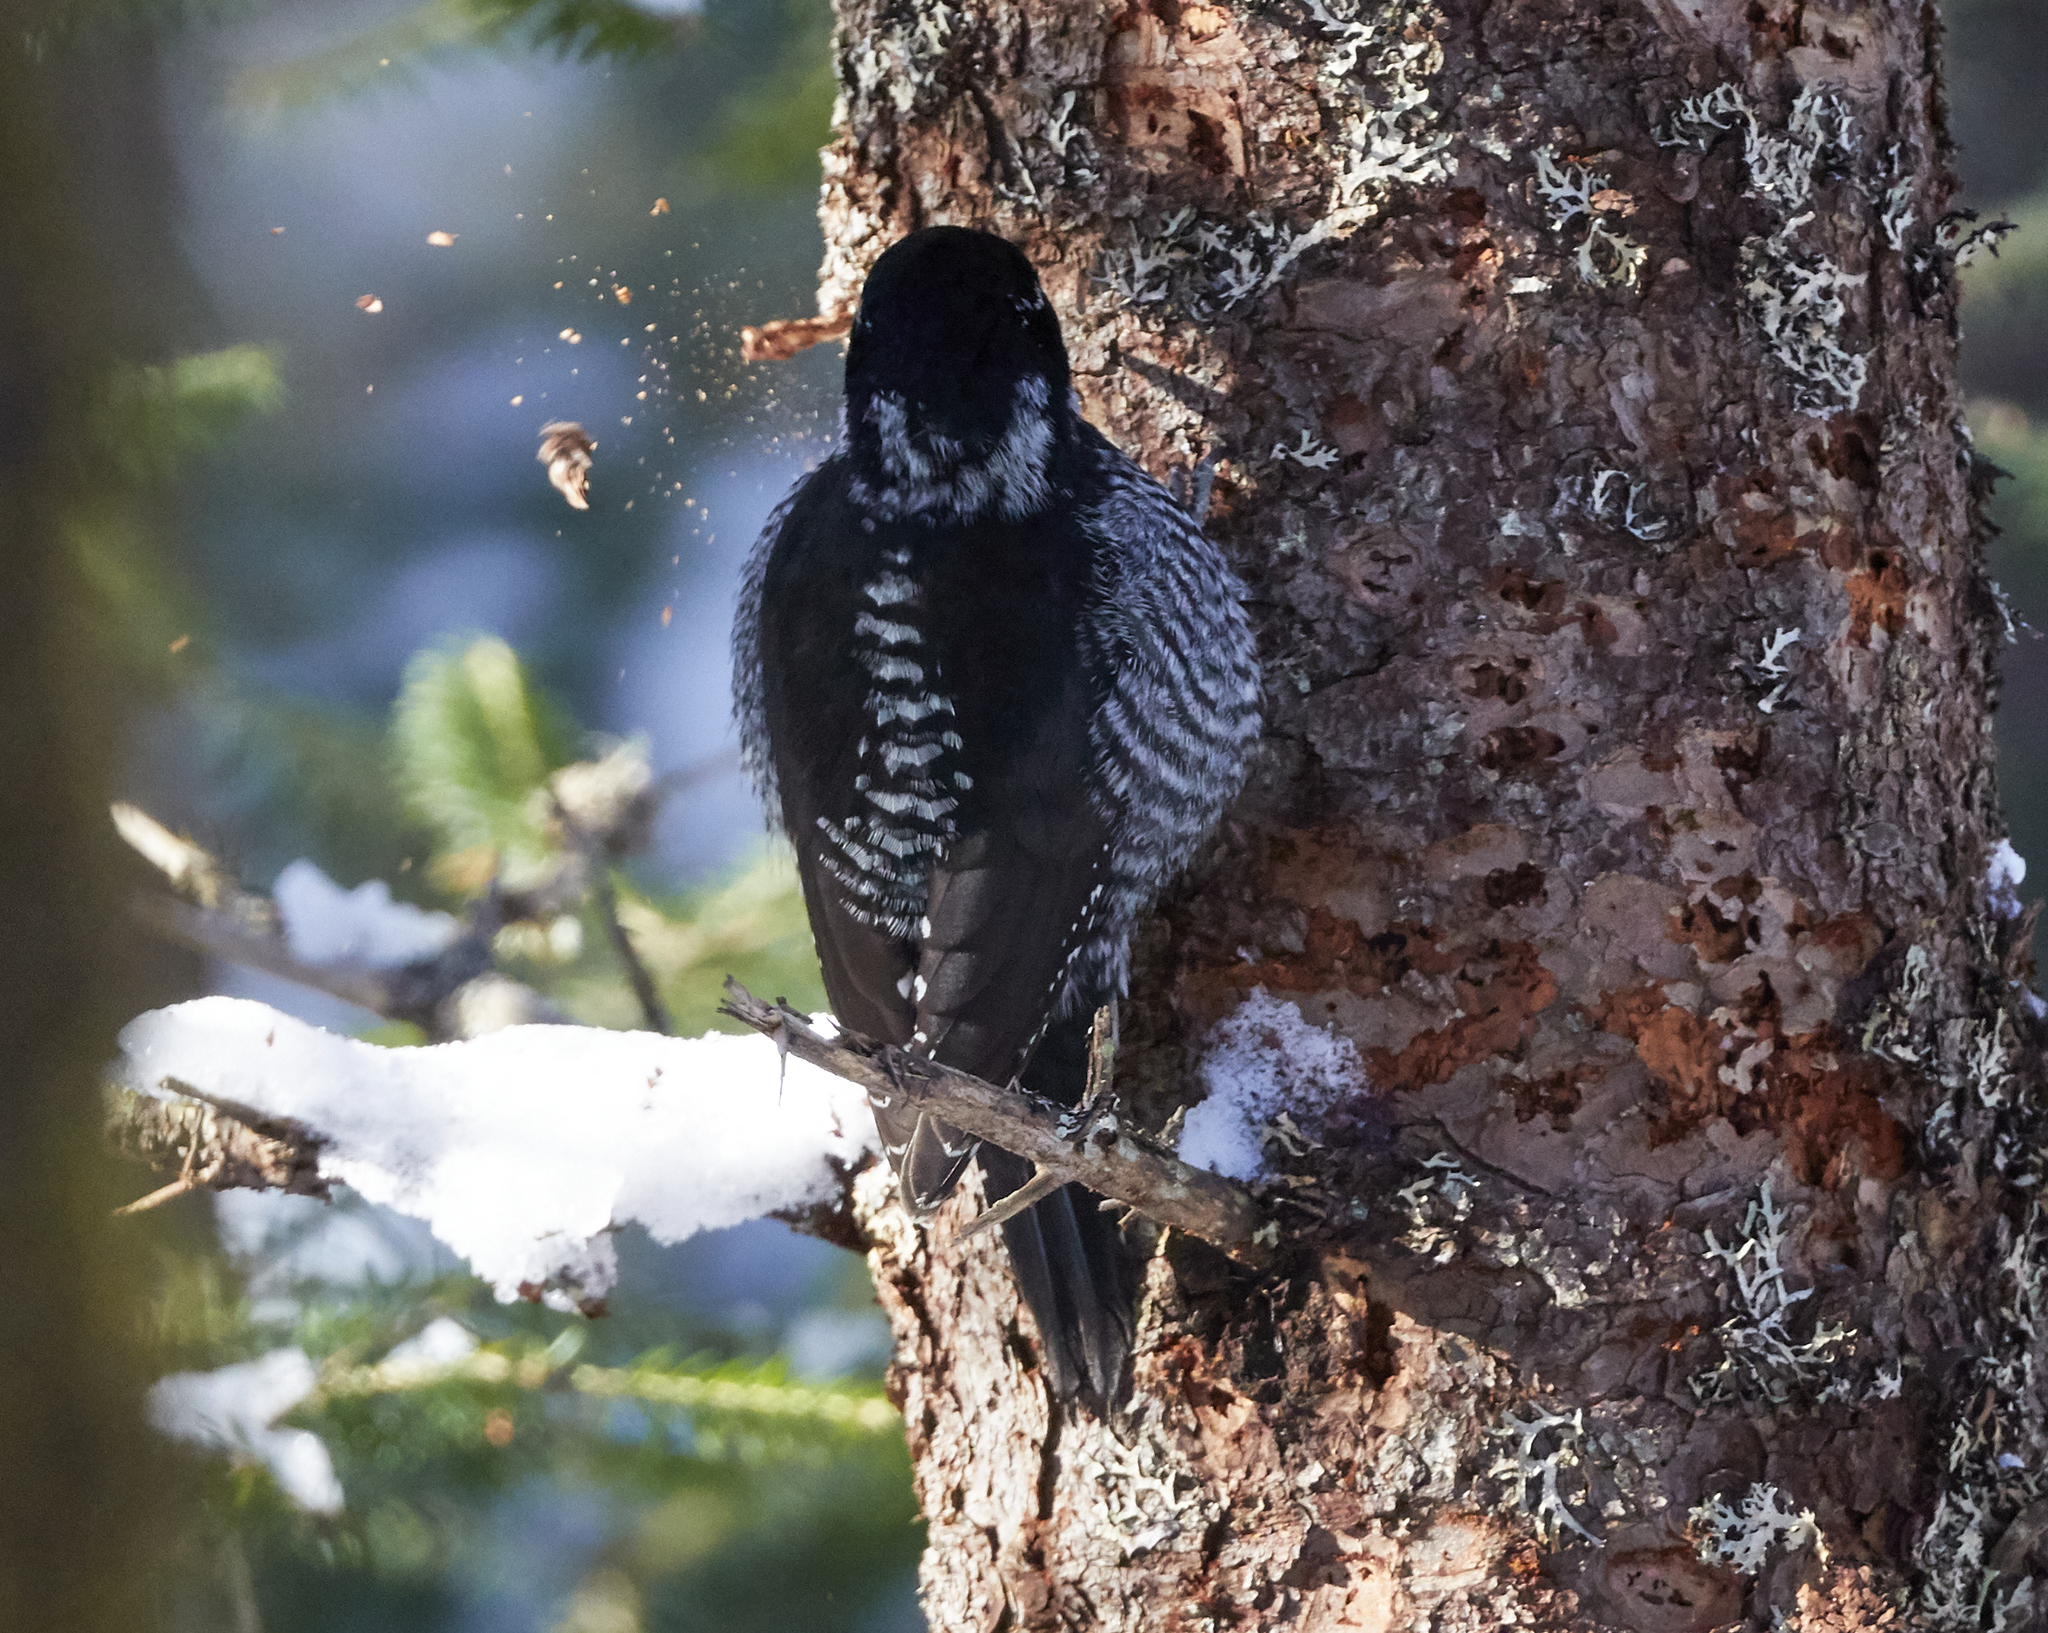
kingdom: Animalia
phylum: Chordata
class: Aves
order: Piciformes
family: Picidae
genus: Picoides
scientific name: Picoides dorsalis
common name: American three-toed woodpecker
